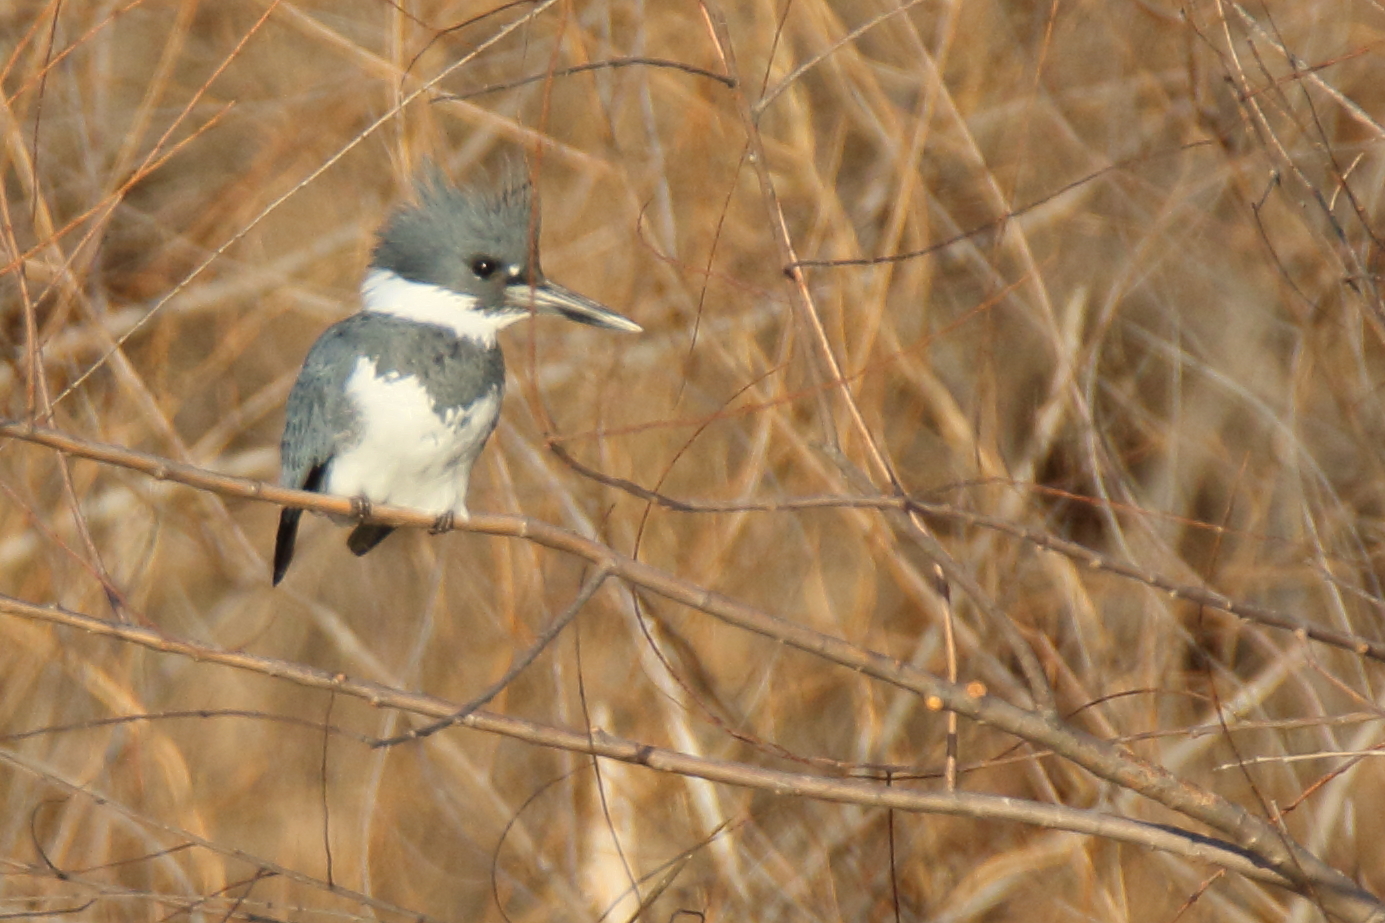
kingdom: Animalia
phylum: Chordata
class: Aves
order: Coraciiformes
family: Alcedinidae
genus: Megaceryle
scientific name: Megaceryle alcyon
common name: Belted kingfisher
